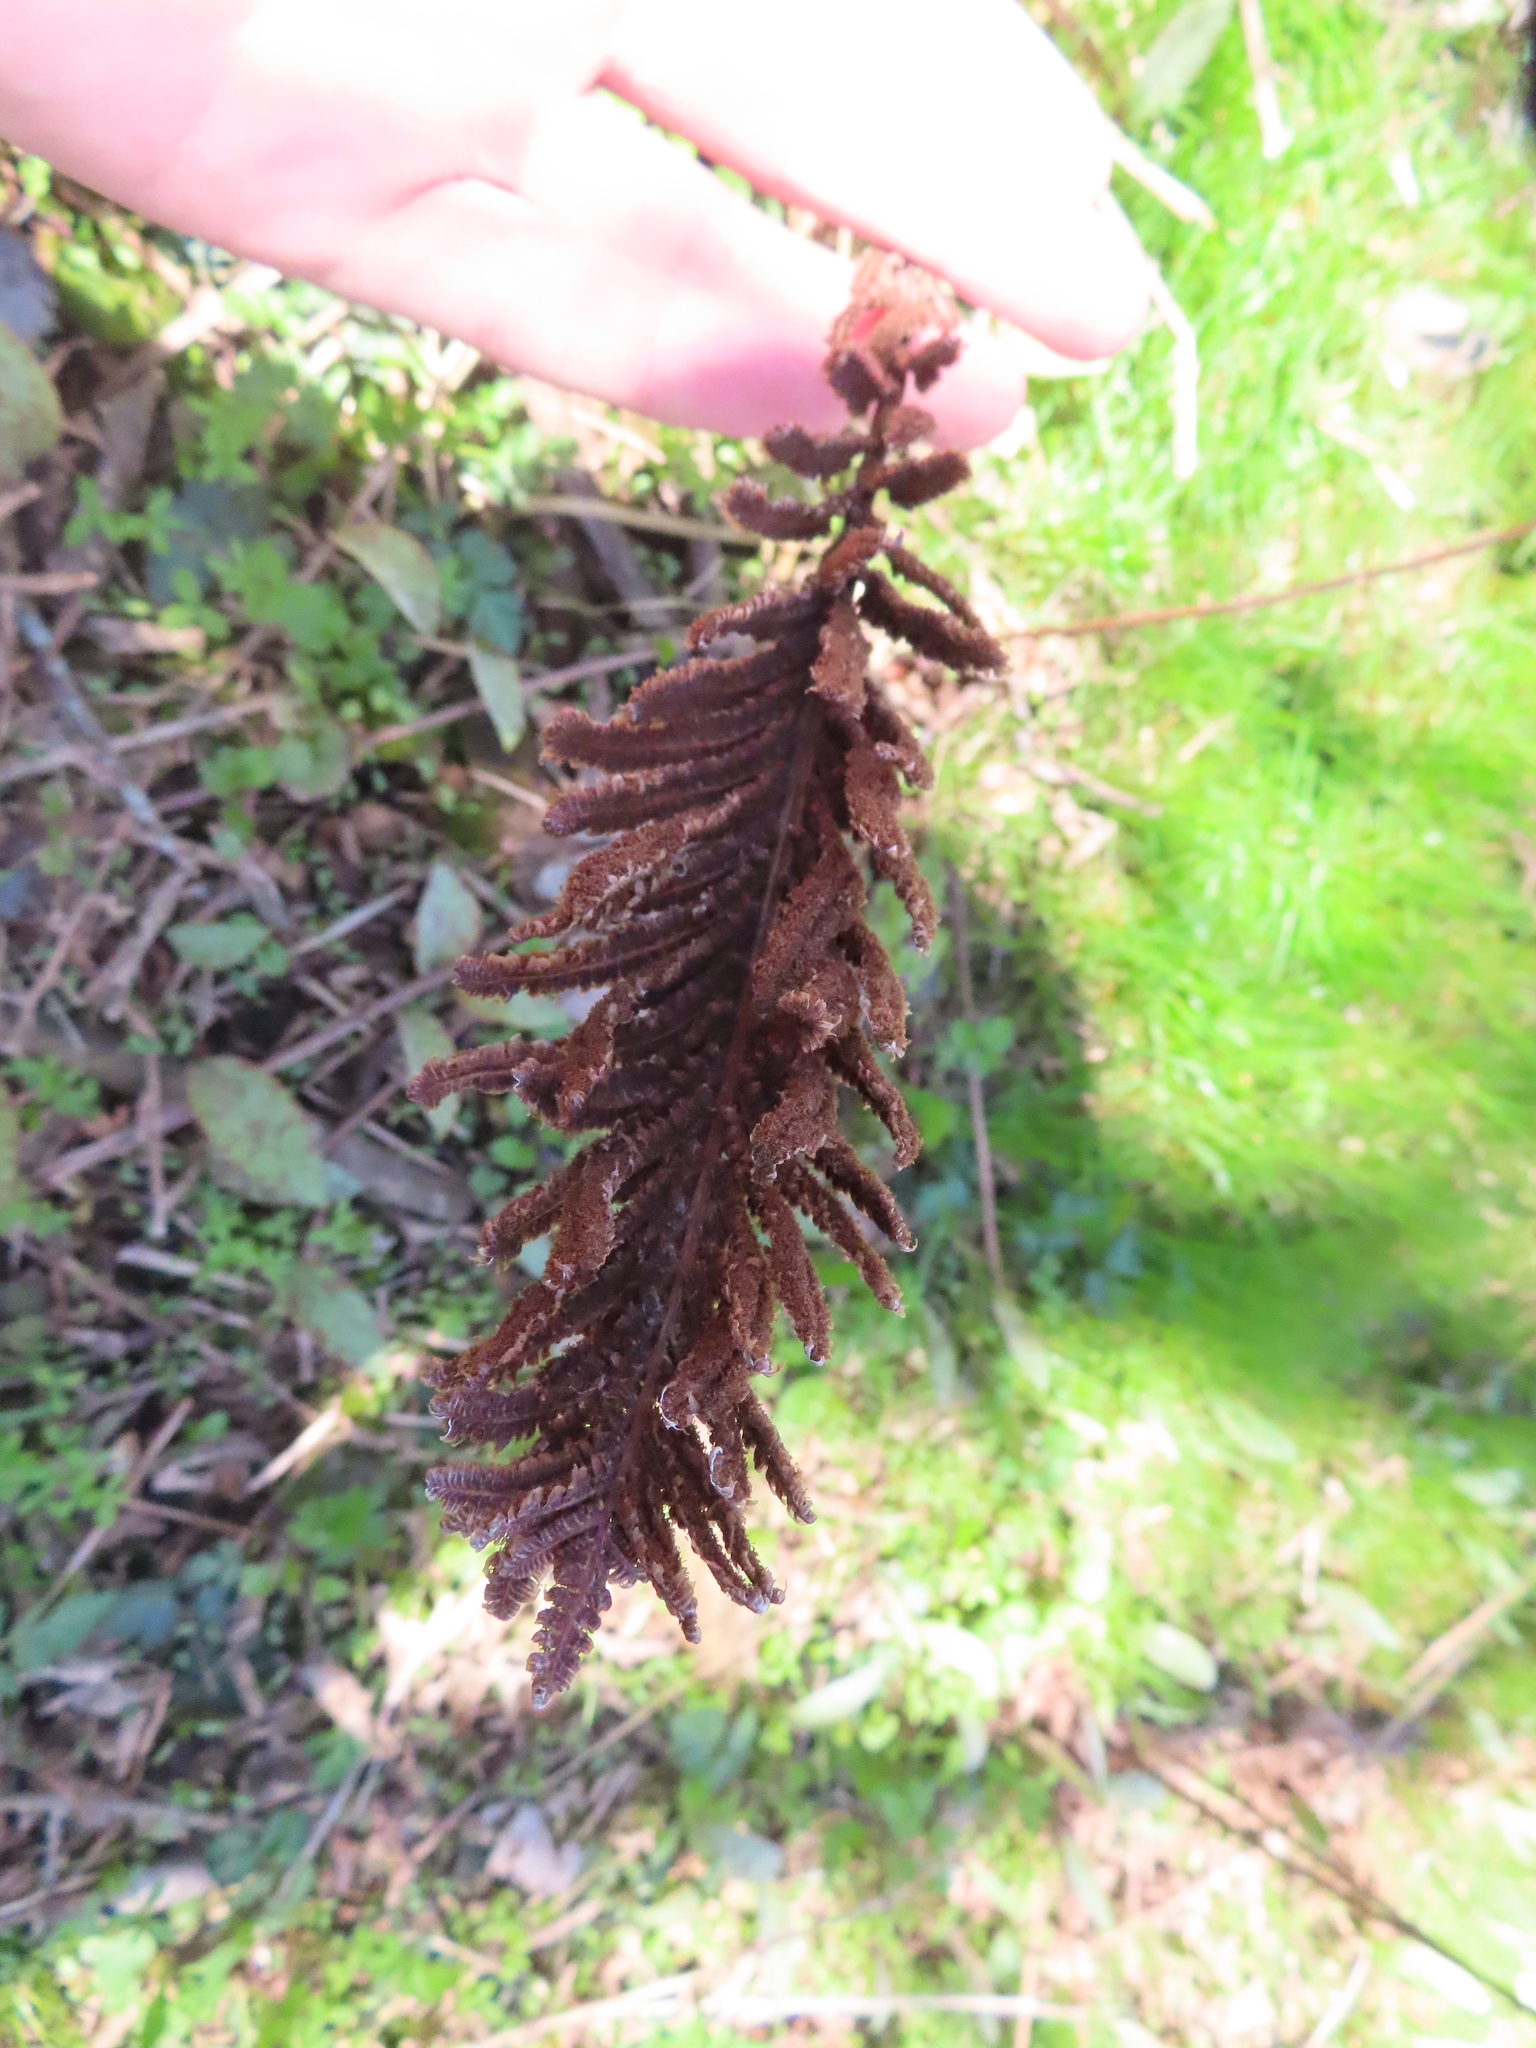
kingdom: Plantae
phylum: Tracheophyta
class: Polypodiopsida
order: Polypodiales
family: Onocleaceae
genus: Matteuccia
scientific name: Matteuccia struthiopteris
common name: Ostrich fern
